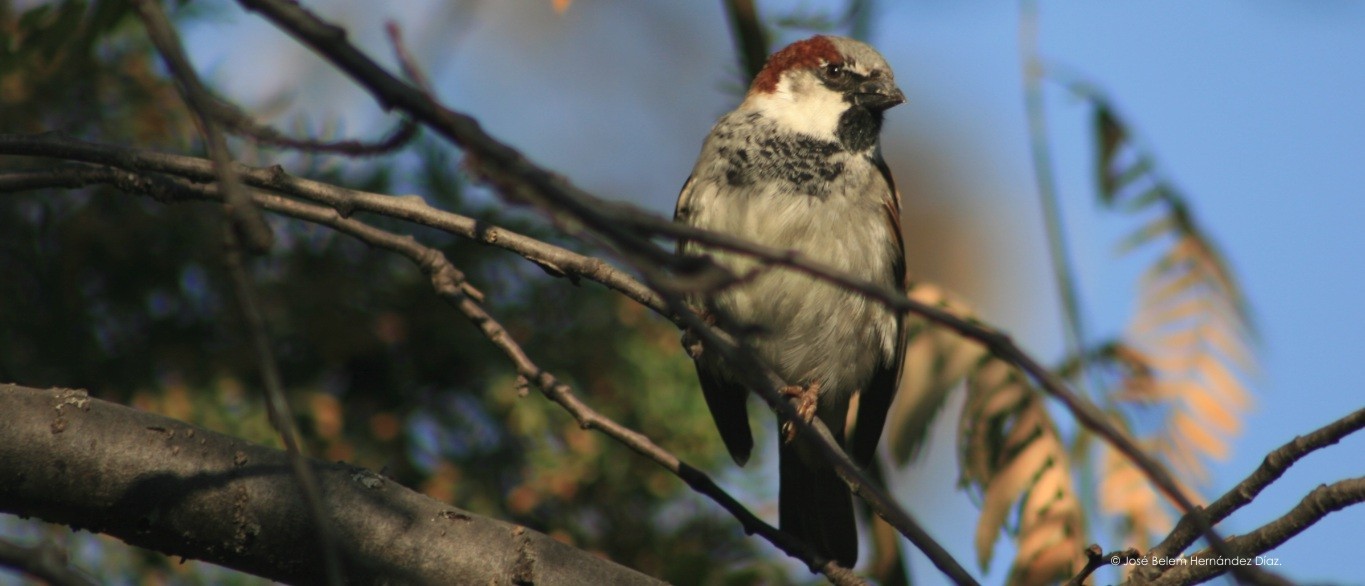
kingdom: Animalia
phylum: Chordata
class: Aves
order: Passeriformes
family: Passeridae
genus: Passer
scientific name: Passer domesticus
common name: House sparrow
